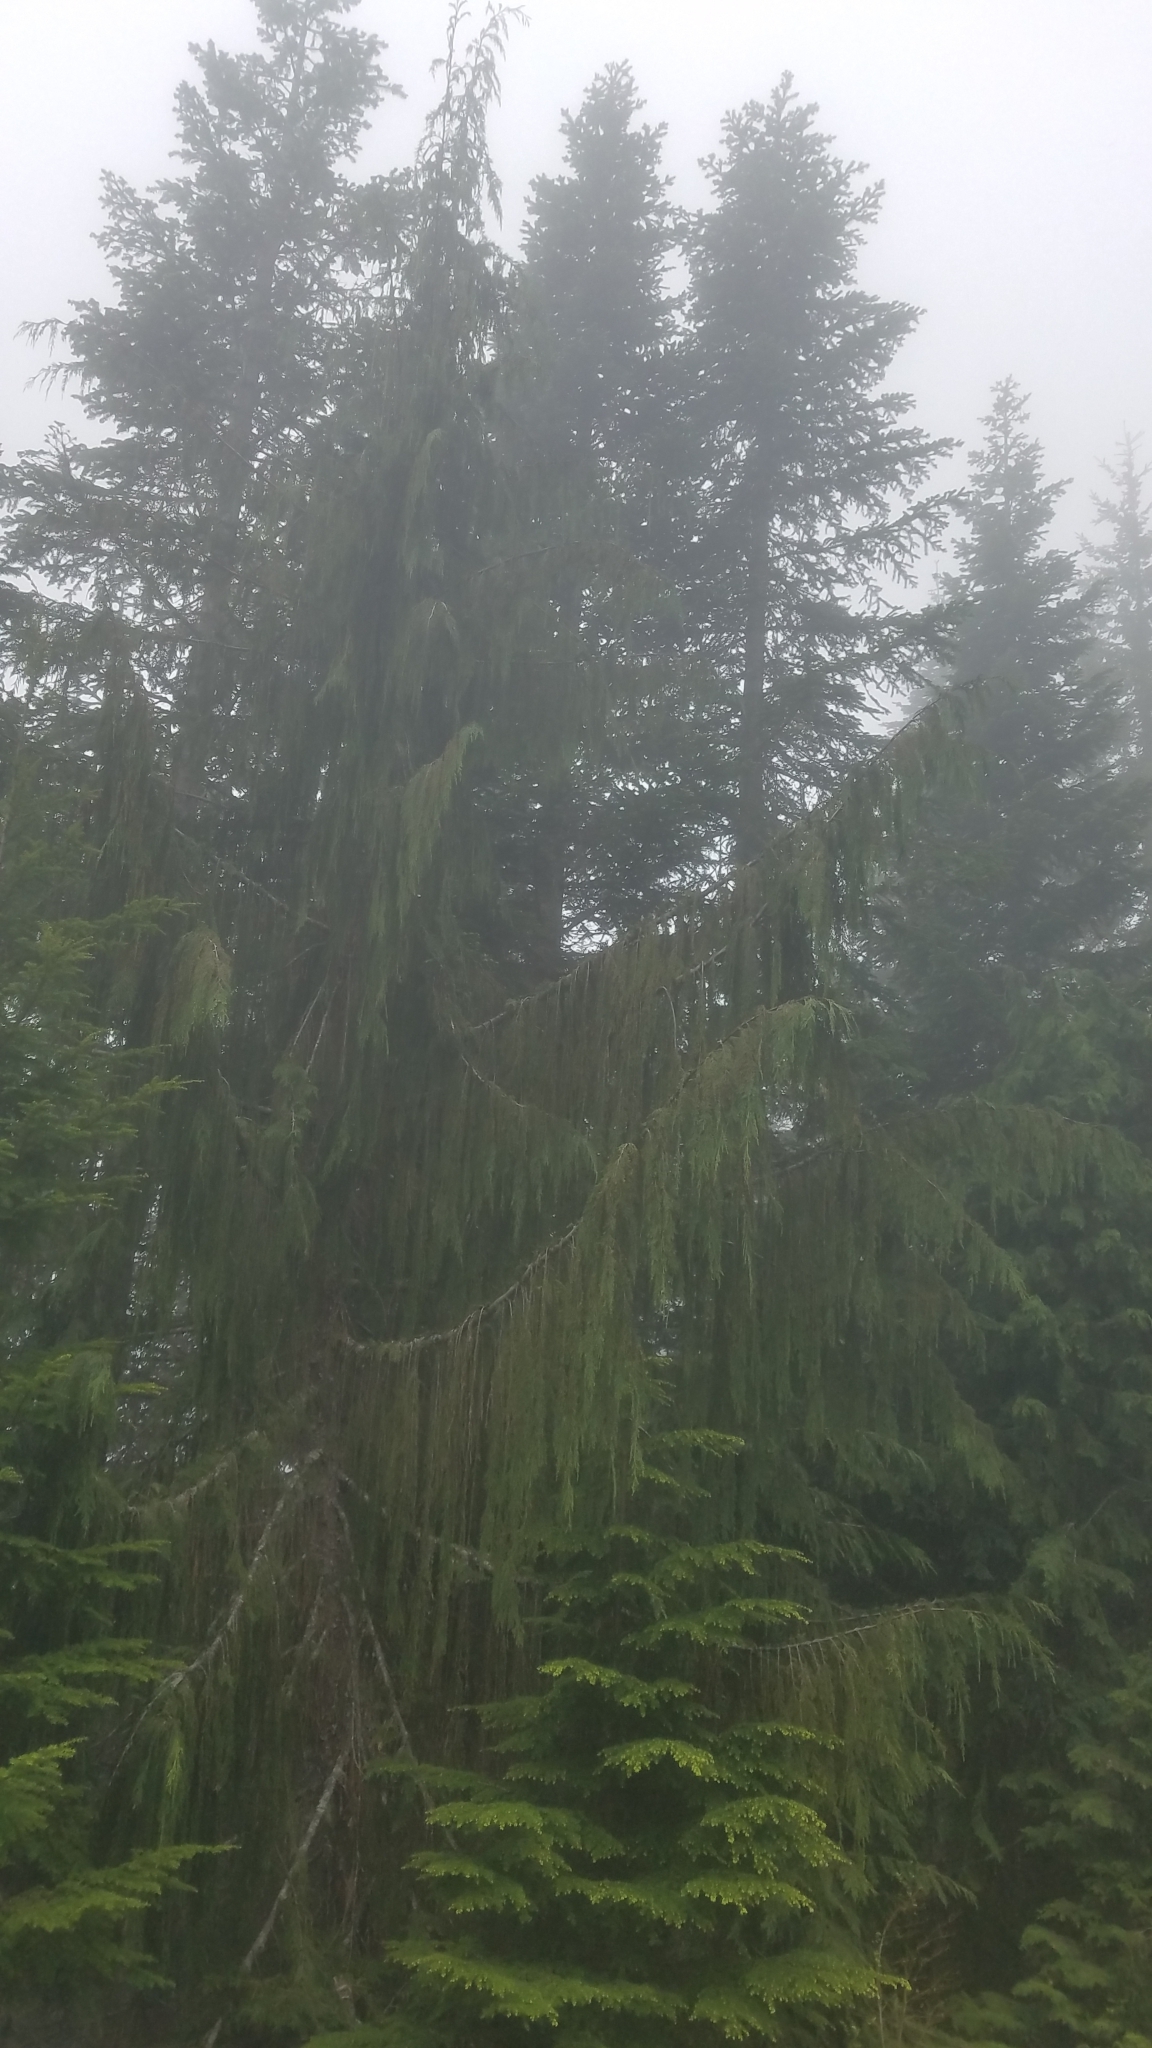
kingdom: Plantae
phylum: Tracheophyta
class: Pinopsida
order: Pinales
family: Cupressaceae
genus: Xanthocyparis
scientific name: Xanthocyparis nootkatensis
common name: Nootka cypress
